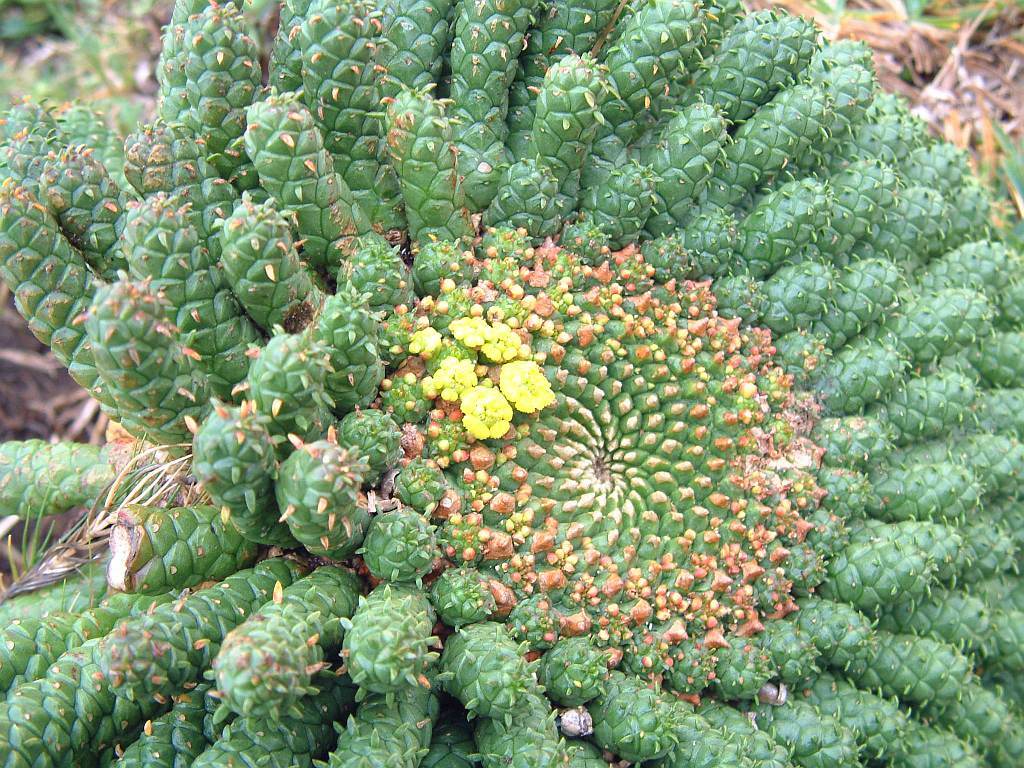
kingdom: Plantae
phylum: Tracheophyta
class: Magnoliopsida
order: Malpighiales
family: Euphorbiaceae
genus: Euphorbia
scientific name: Euphorbia flanaganii
